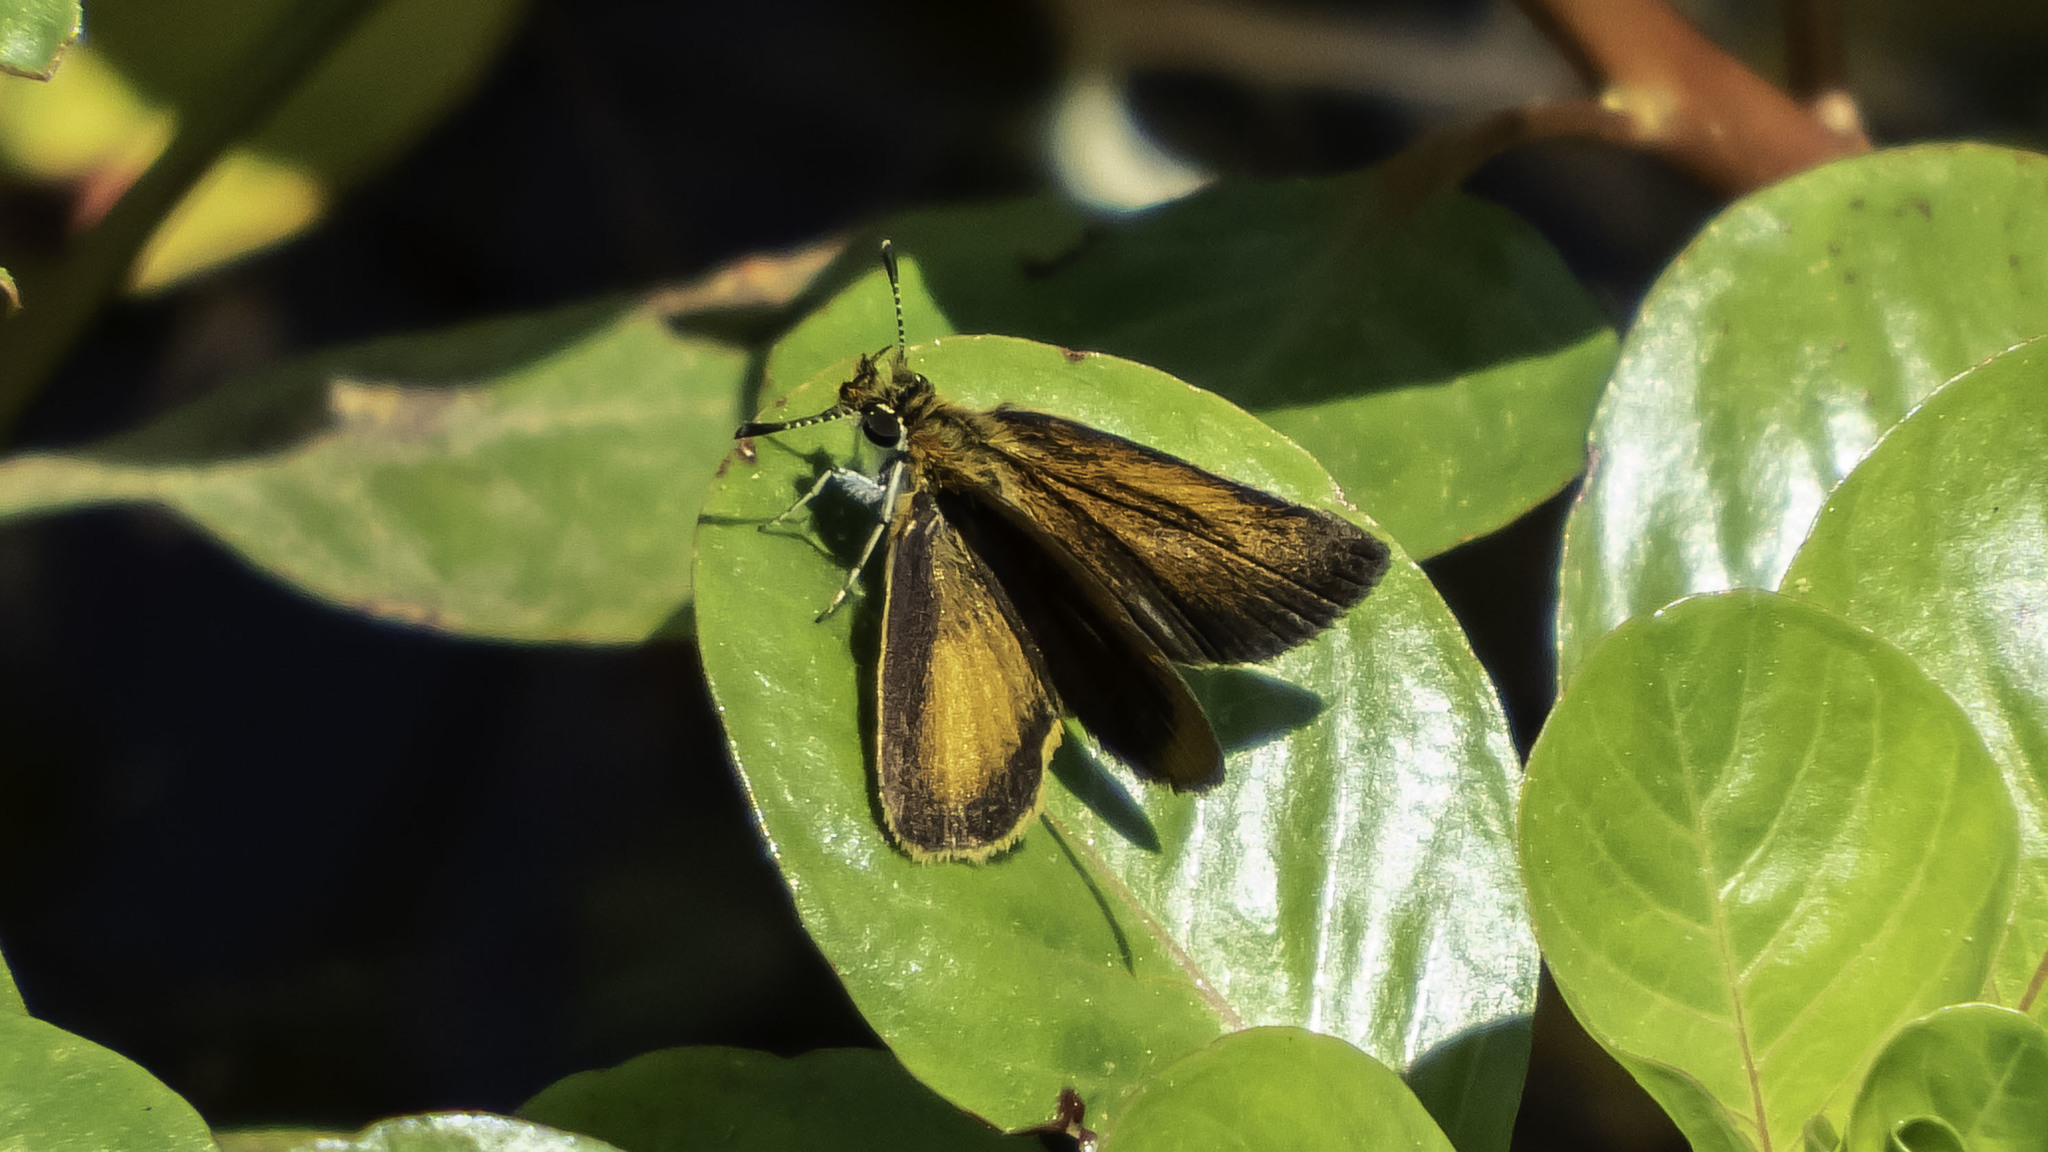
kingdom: Animalia
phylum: Arthropoda
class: Insecta
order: Lepidoptera
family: Hesperiidae
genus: Ancyloxypha
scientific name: Ancyloxypha numitor
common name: Least skipper
